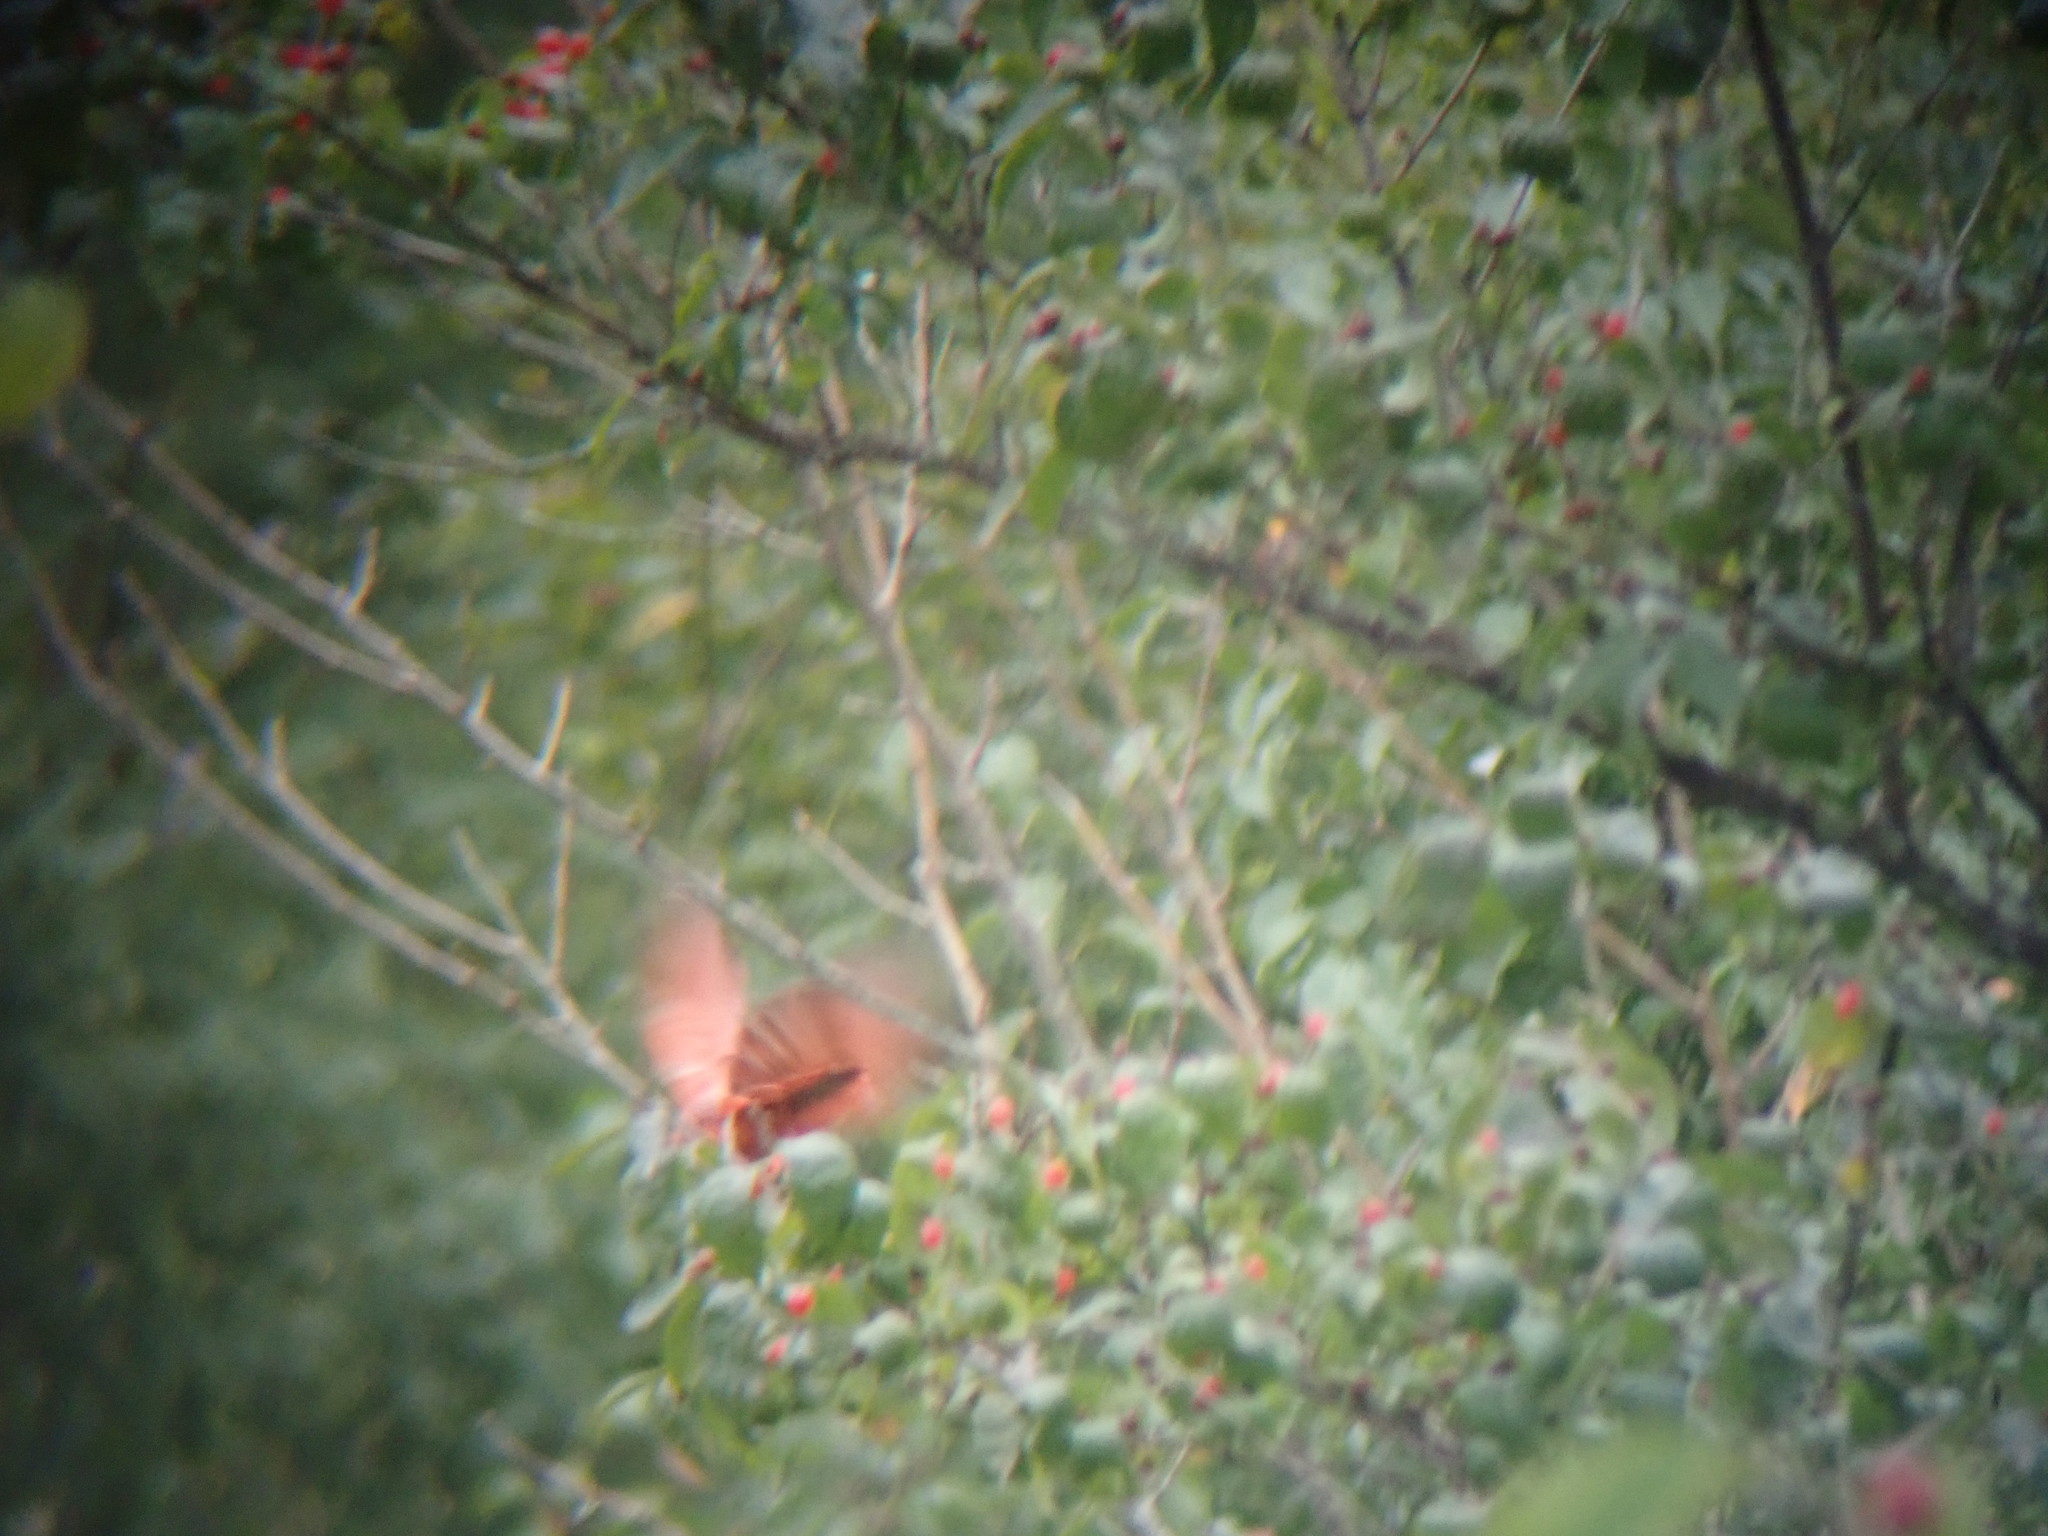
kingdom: Animalia
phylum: Chordata
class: Aves
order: Passeriformes
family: Cardinalidae
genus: Cardinalis
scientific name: Cardinalis cardinalis
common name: Northern cardinal
